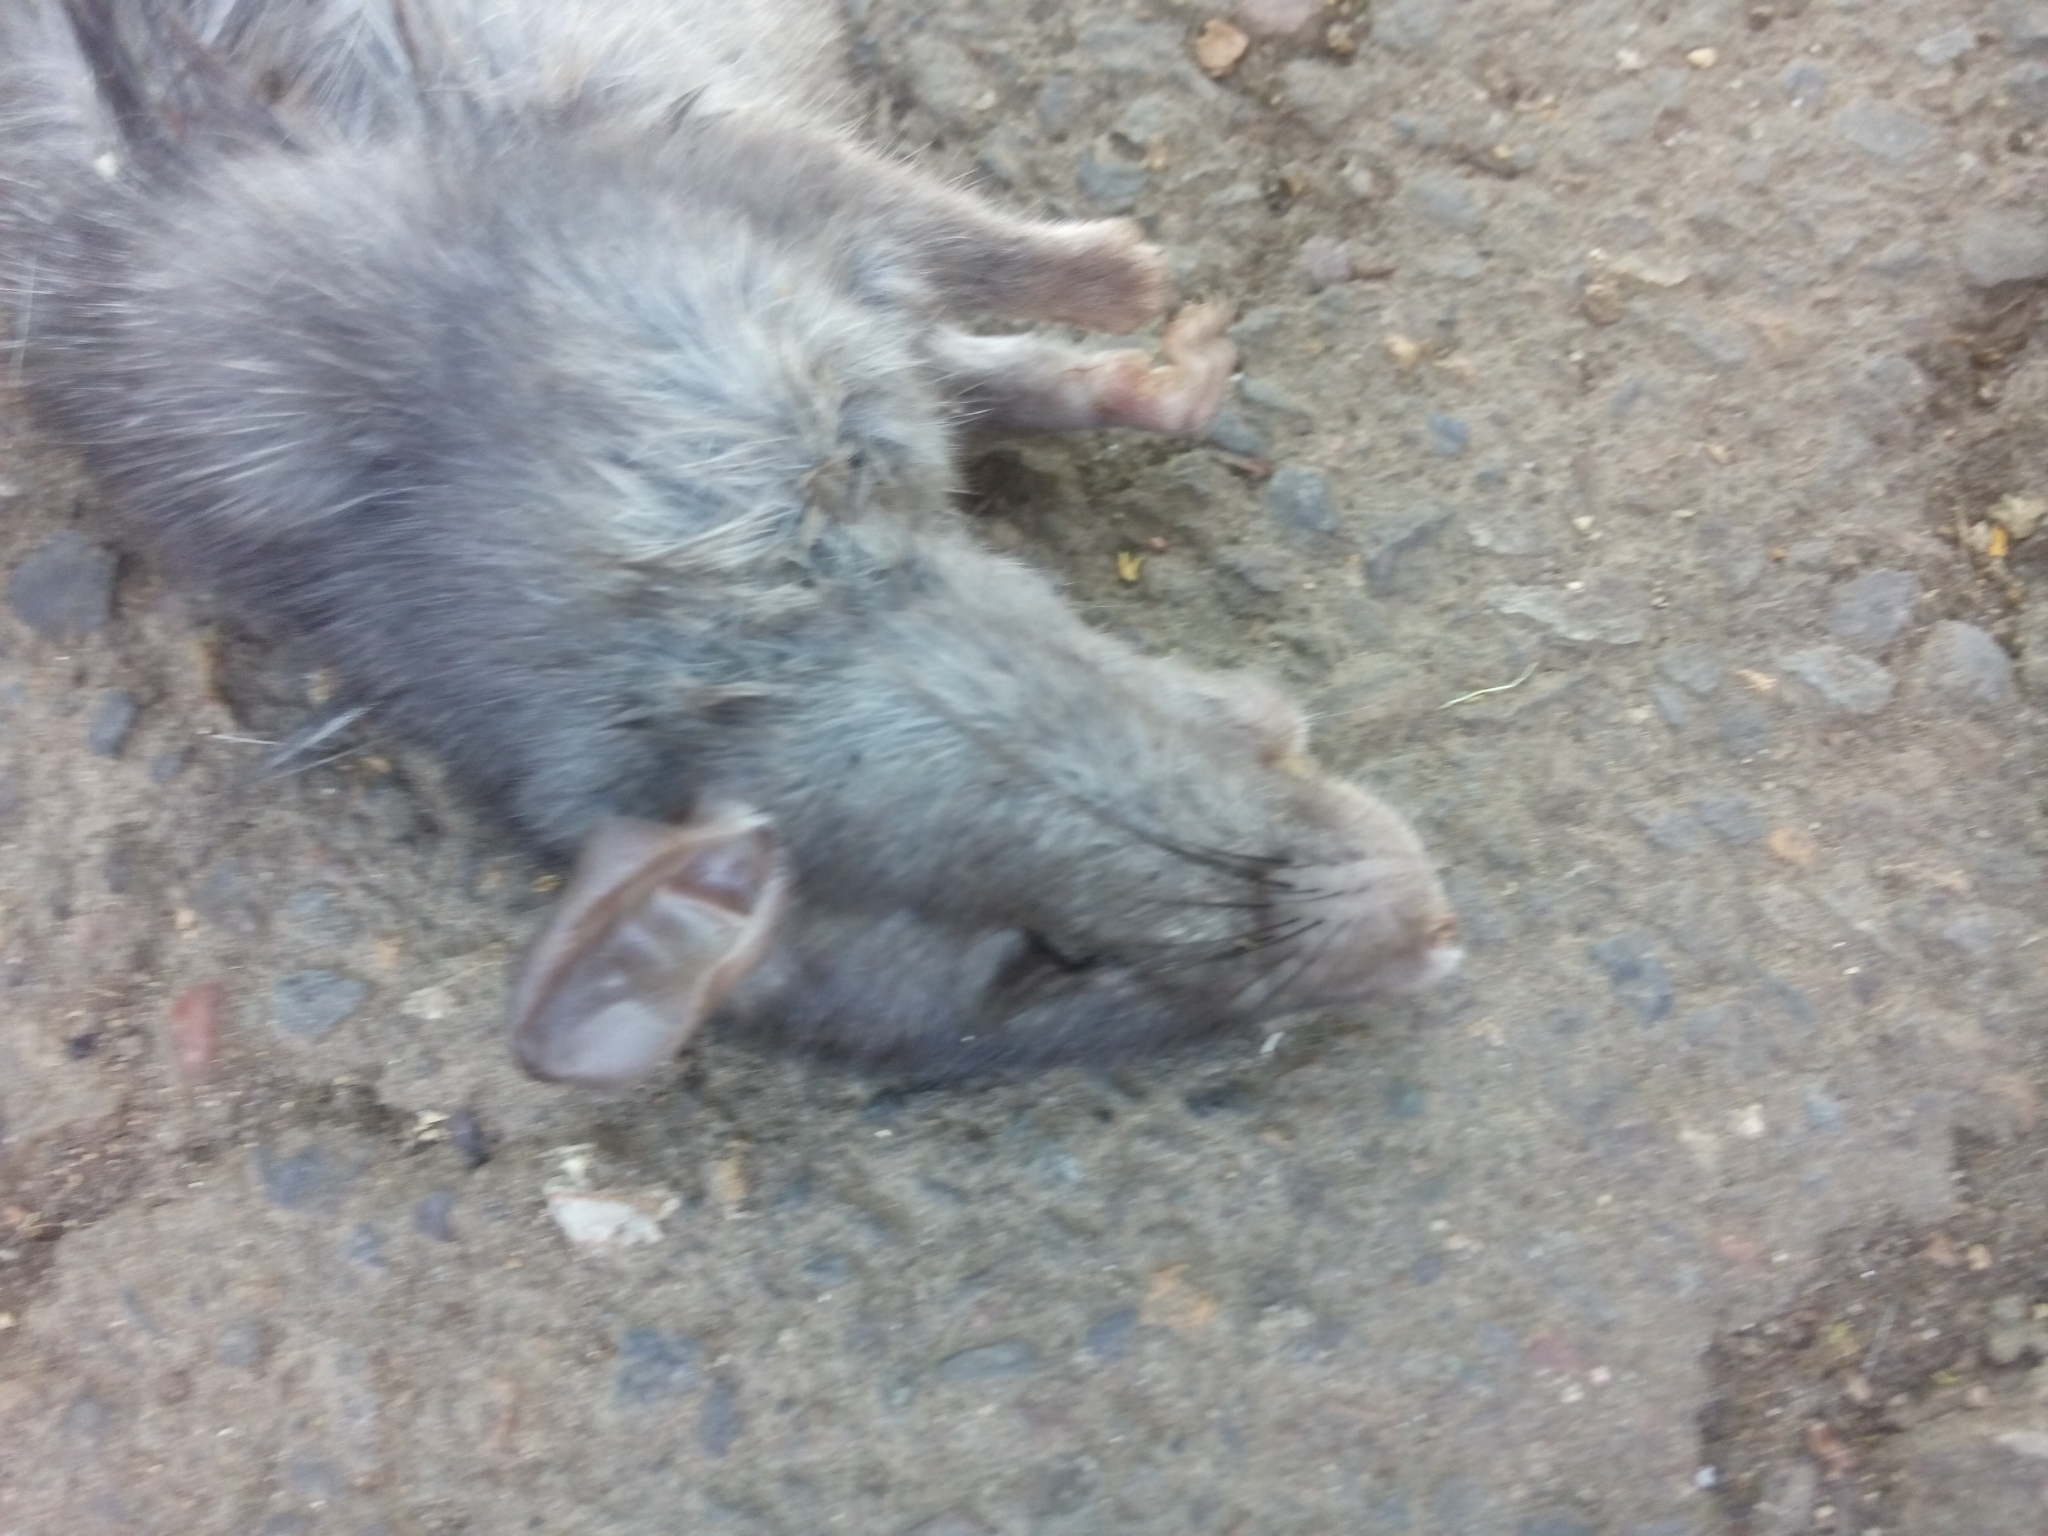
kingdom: Animalia
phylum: Chordata
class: Mammalia
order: Rodentia
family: Muridae
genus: Rattus
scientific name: Rattus norvegicus
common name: Brown rat
